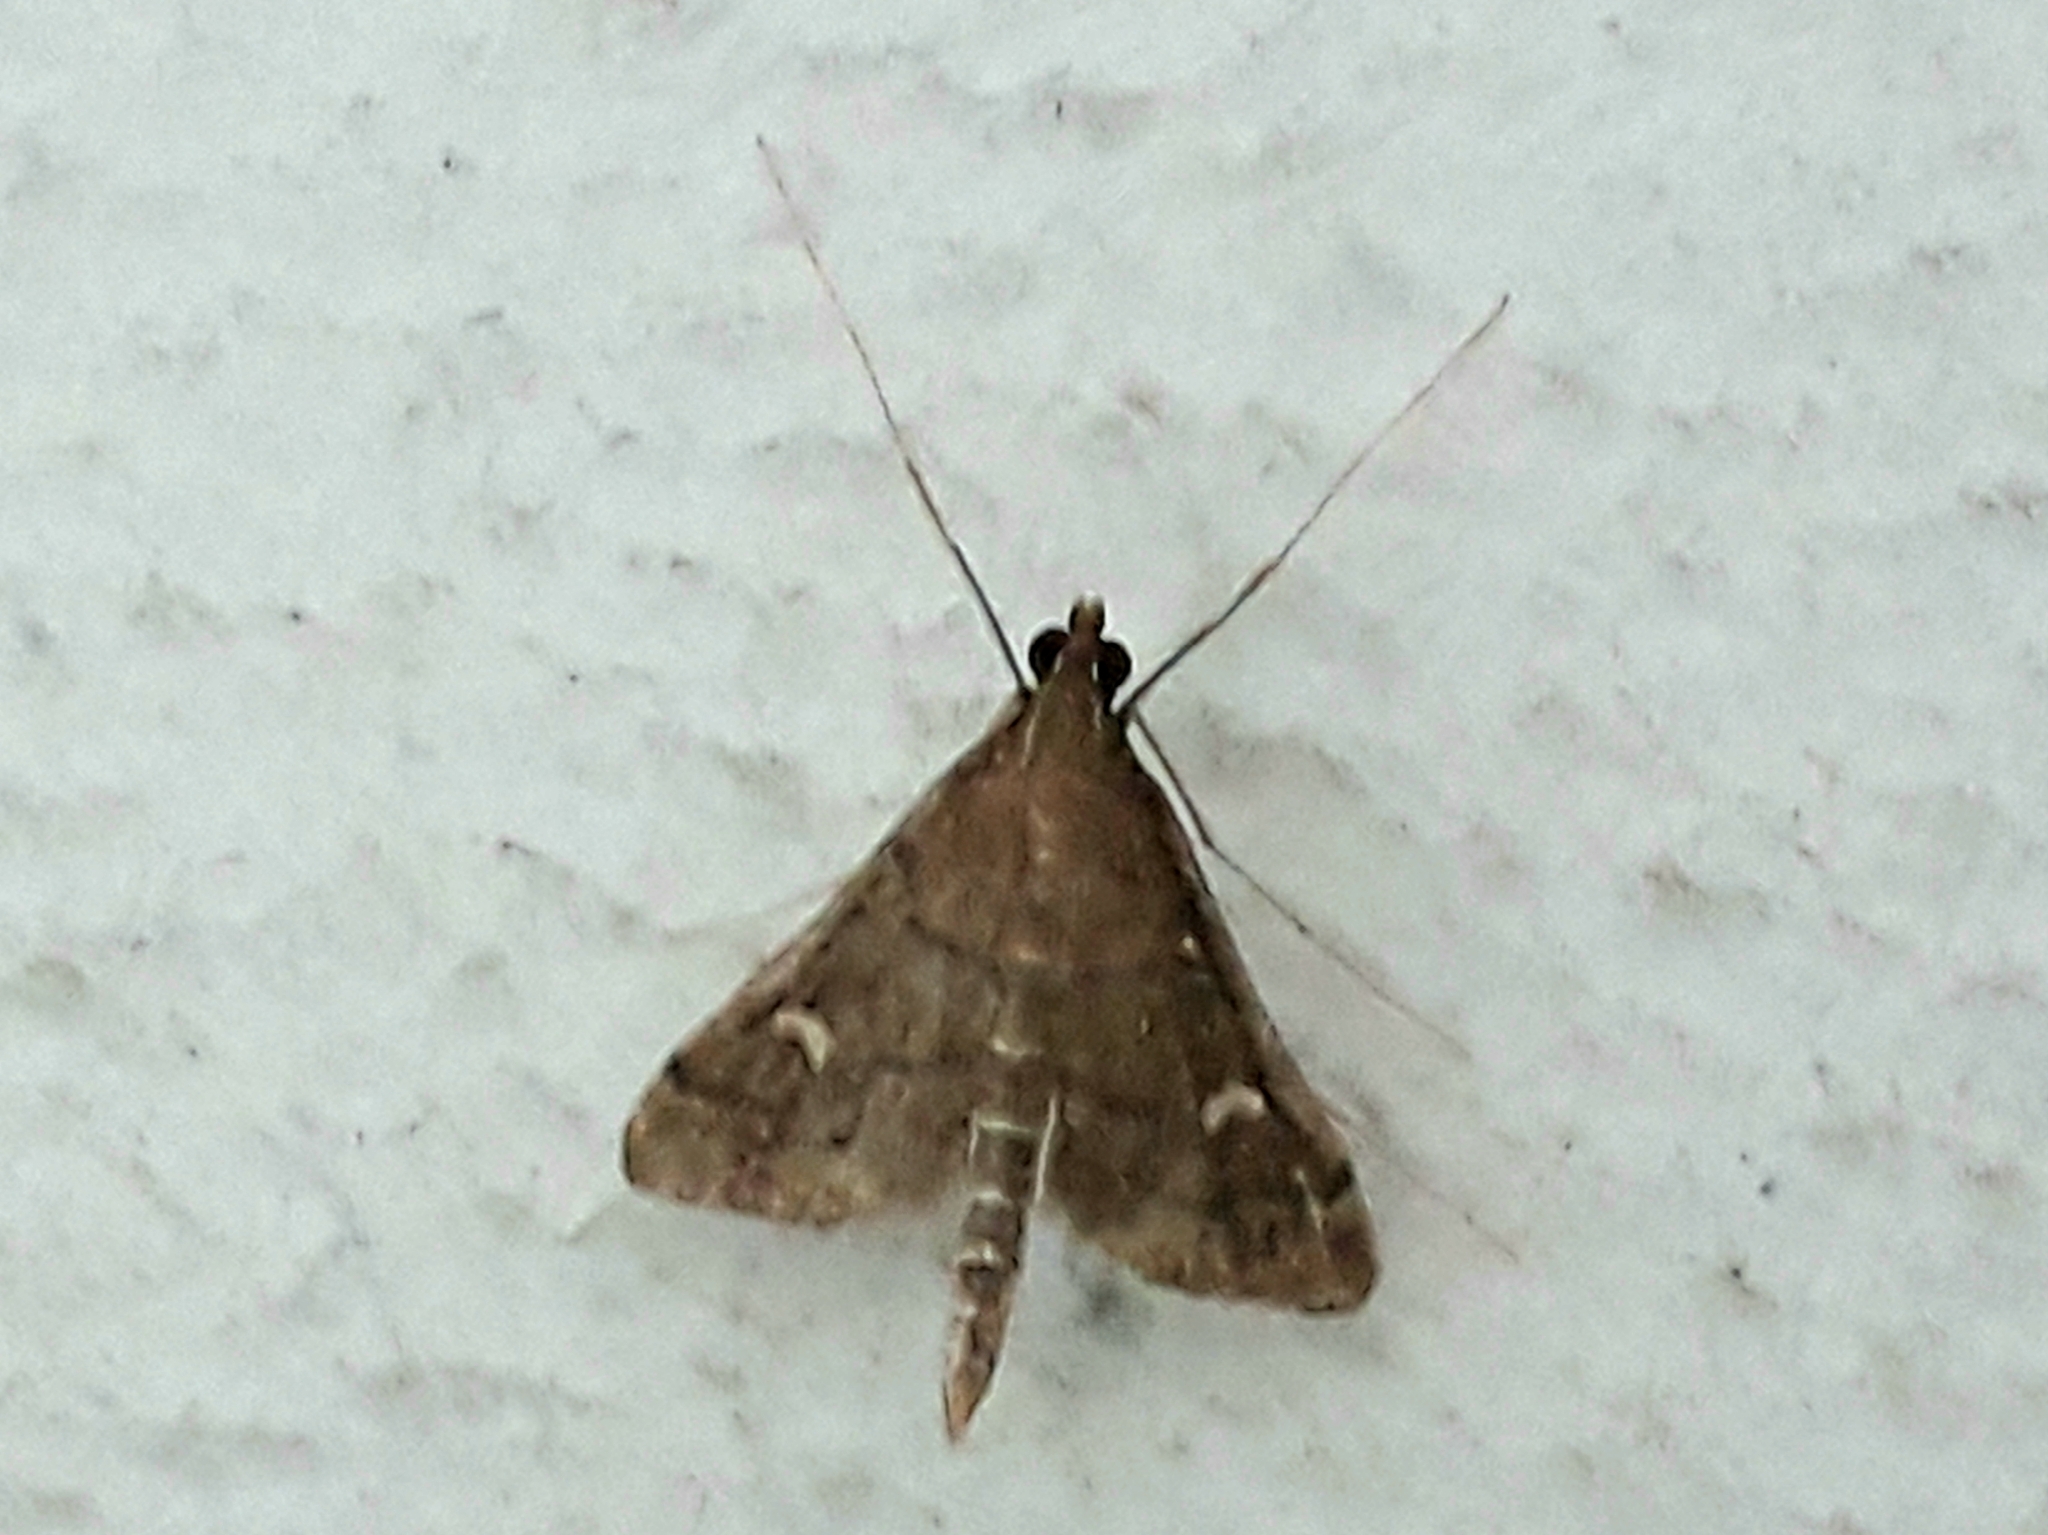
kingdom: Animalia
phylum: Arthropoda
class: Insecta
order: Lepidoptera
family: Crambidae
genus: Stenia
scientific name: Stenia Dolicharthria punctalis
